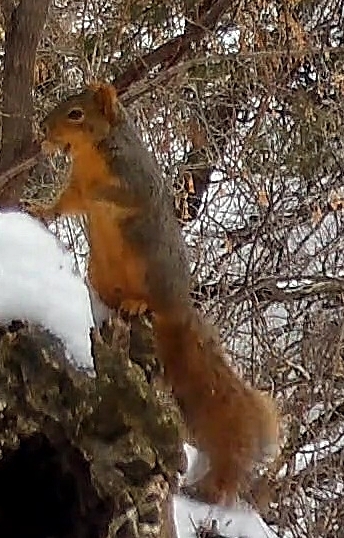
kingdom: Animalia
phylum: Chordata
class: Mammalia
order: Rodentia
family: Sciuridae
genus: Sciurus
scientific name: Sciurus niger
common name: Fox squirrel
